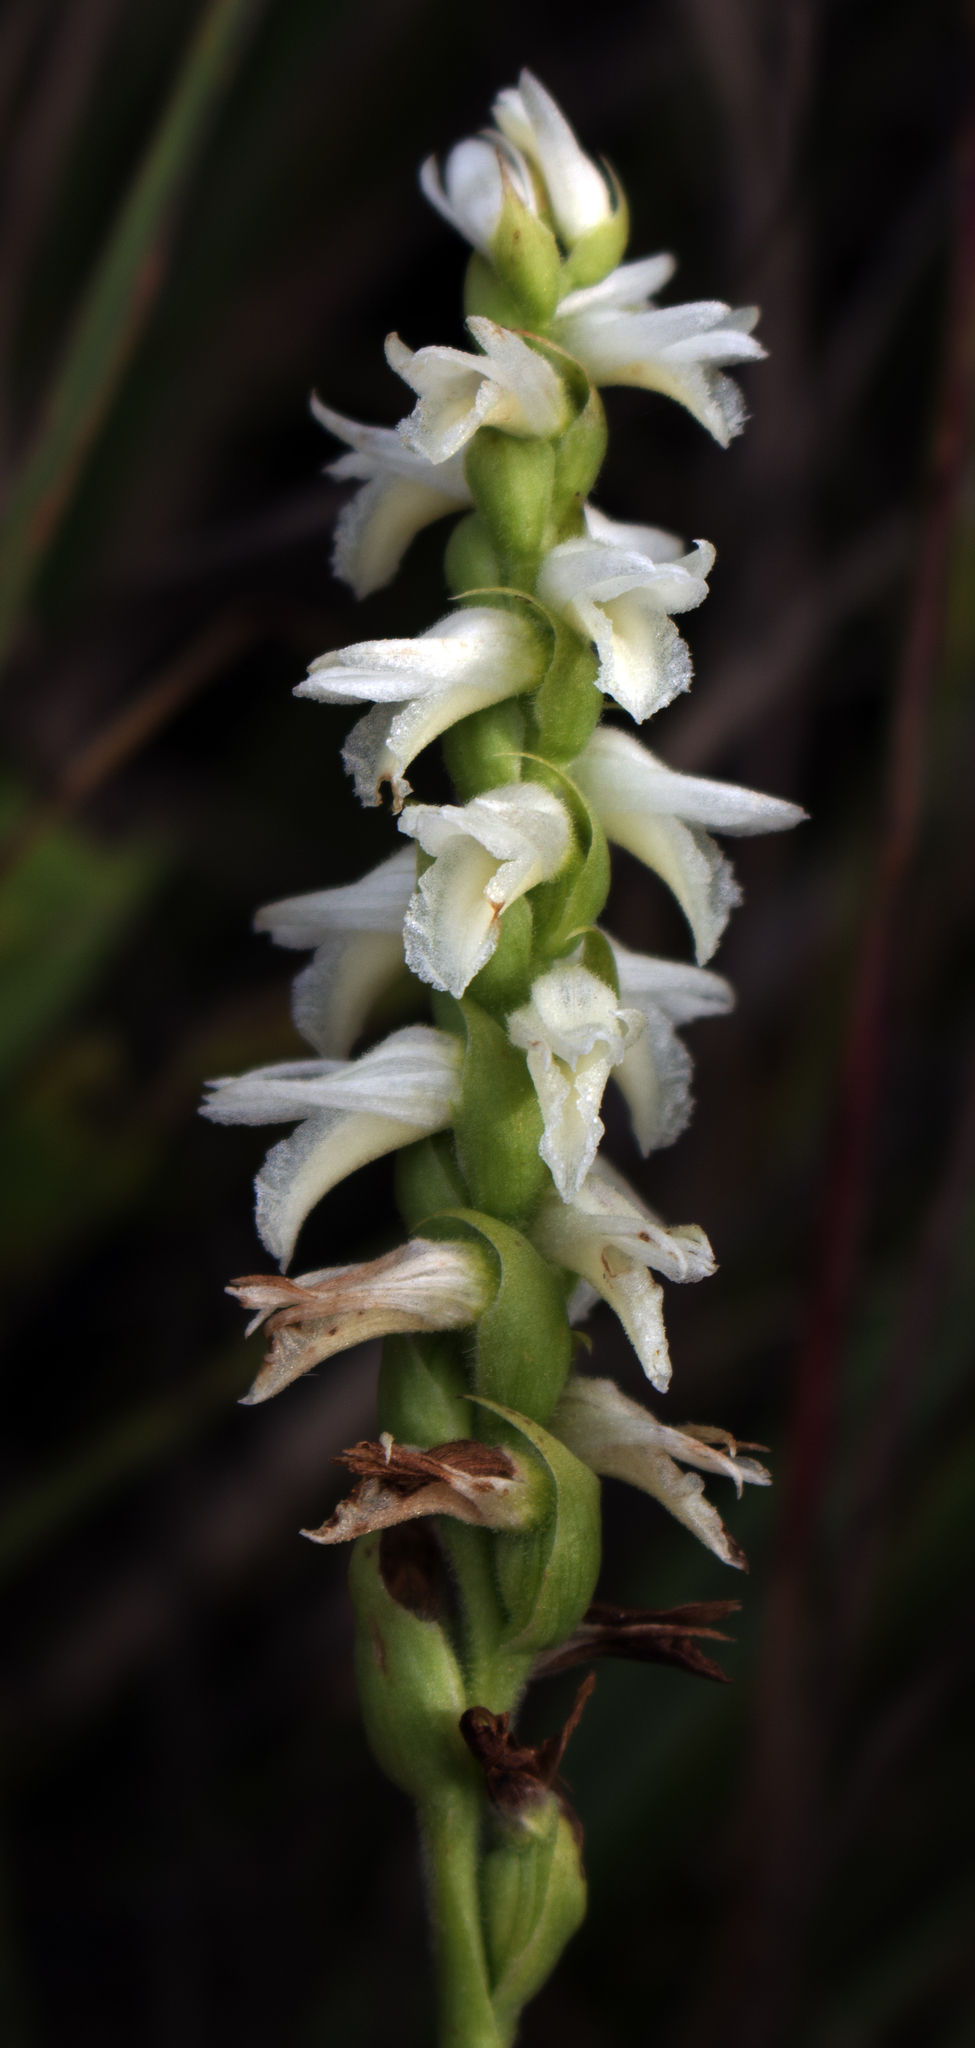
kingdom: Plantae
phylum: Tracheophyta
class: Liliopsida
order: Asparagales
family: Orchidaceae
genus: Spiranthes
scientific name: Spiranthes magnicamporum
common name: Great plains ladies'-tresses
